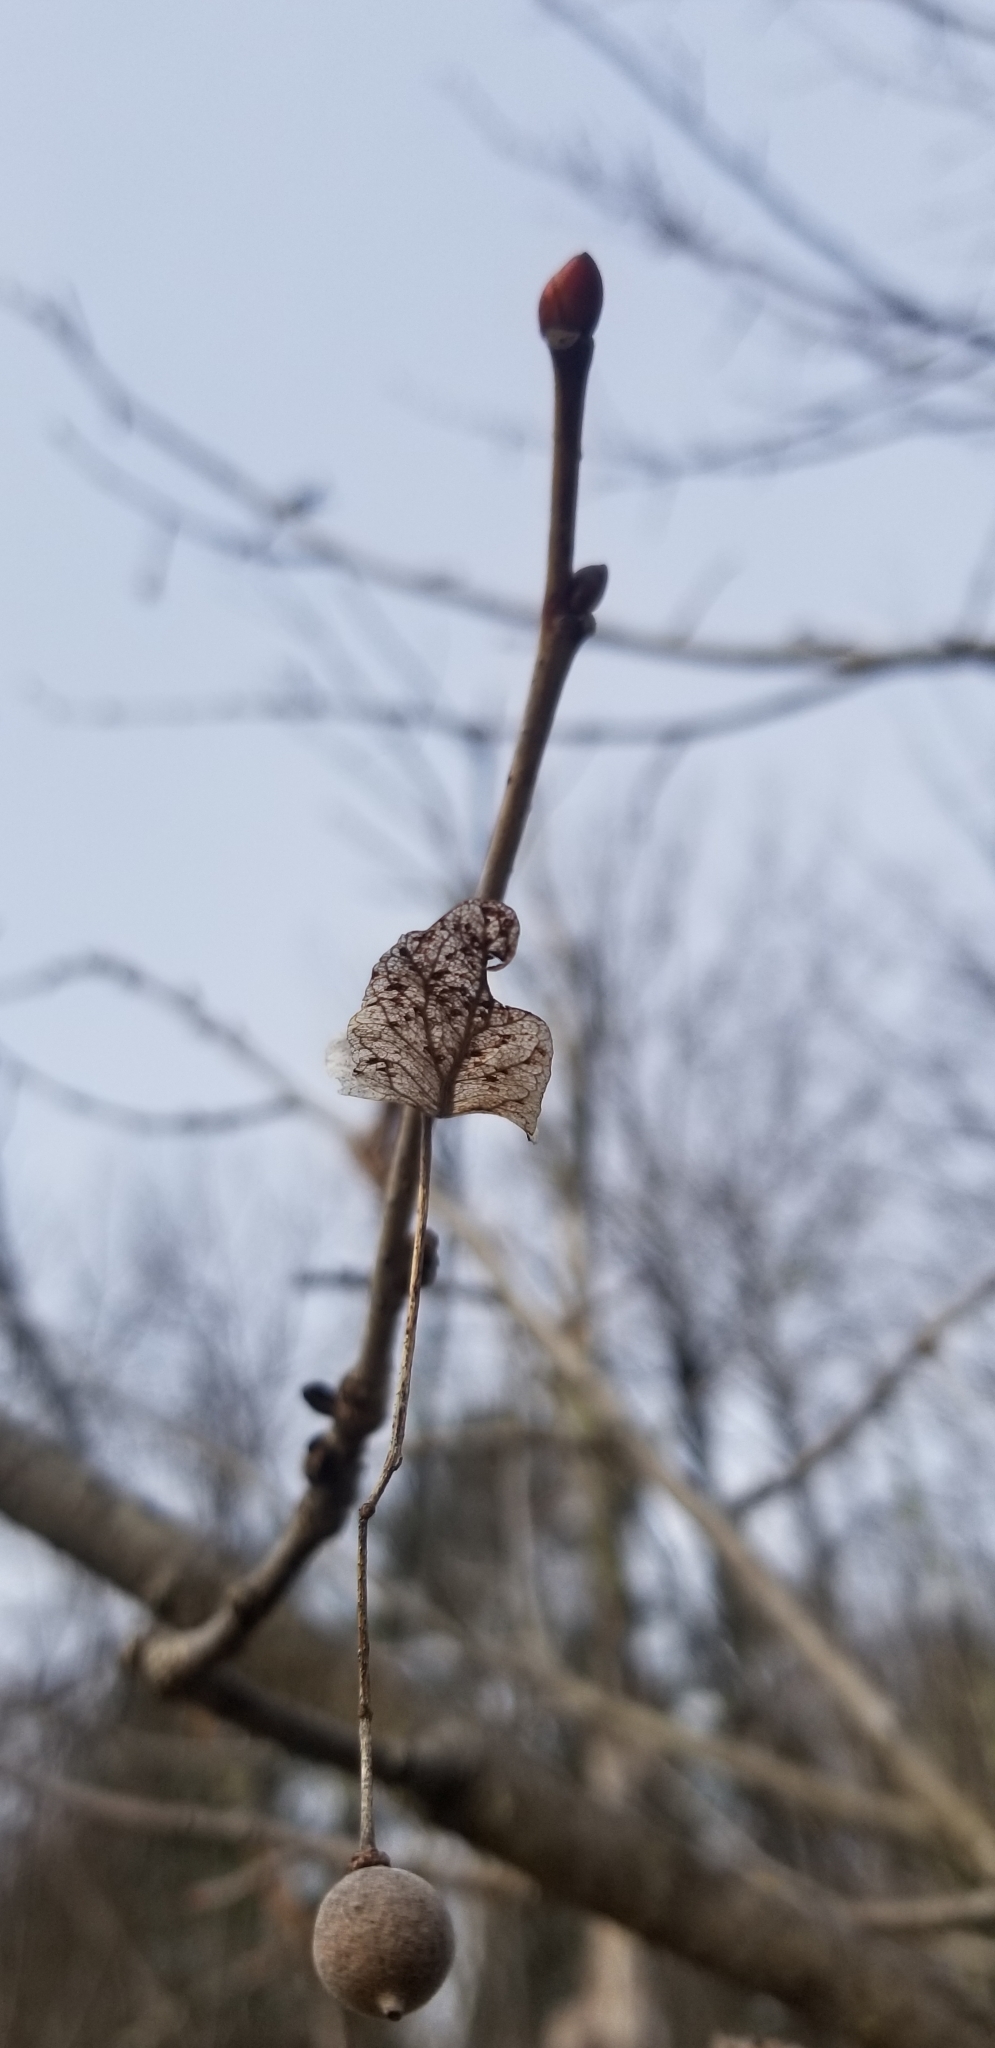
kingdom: Plantae
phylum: Tracheophyta
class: Magnoliopsida
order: Malvales
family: Malvaceae
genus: Tilia
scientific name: Tilia americana
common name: Basswood
